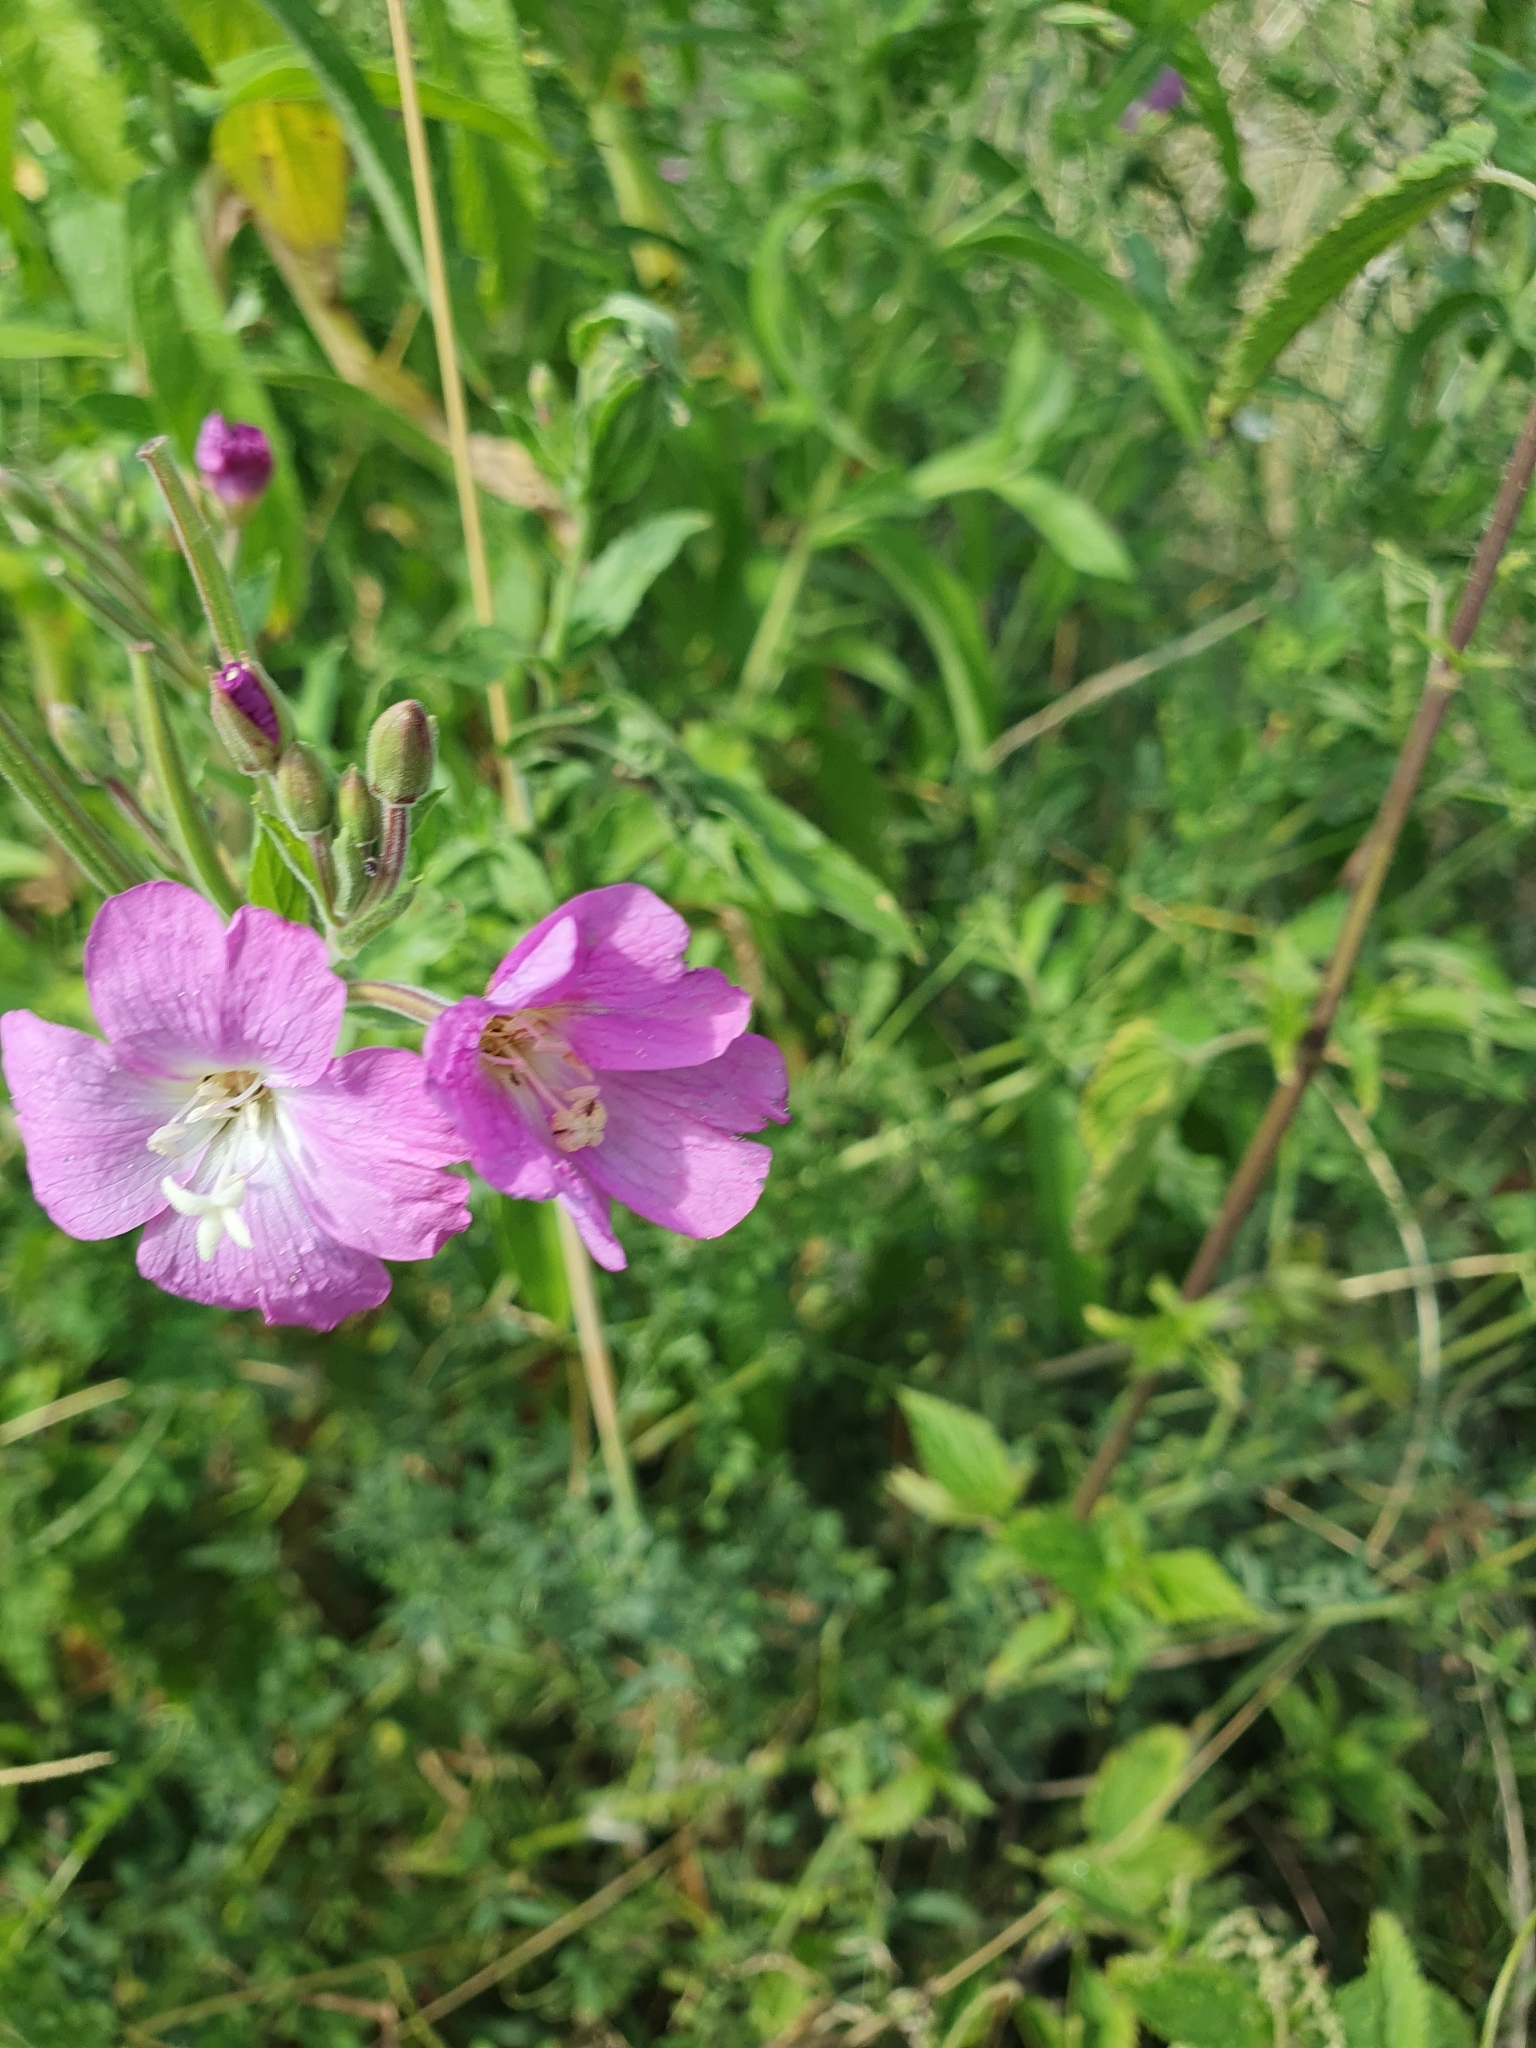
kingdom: Plantae
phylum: Tracheophyta
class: Magnoliopsida
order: Myrtales
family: Onagraceae
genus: Epilobium
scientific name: Epilobium hirsutum
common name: Great willowherb
